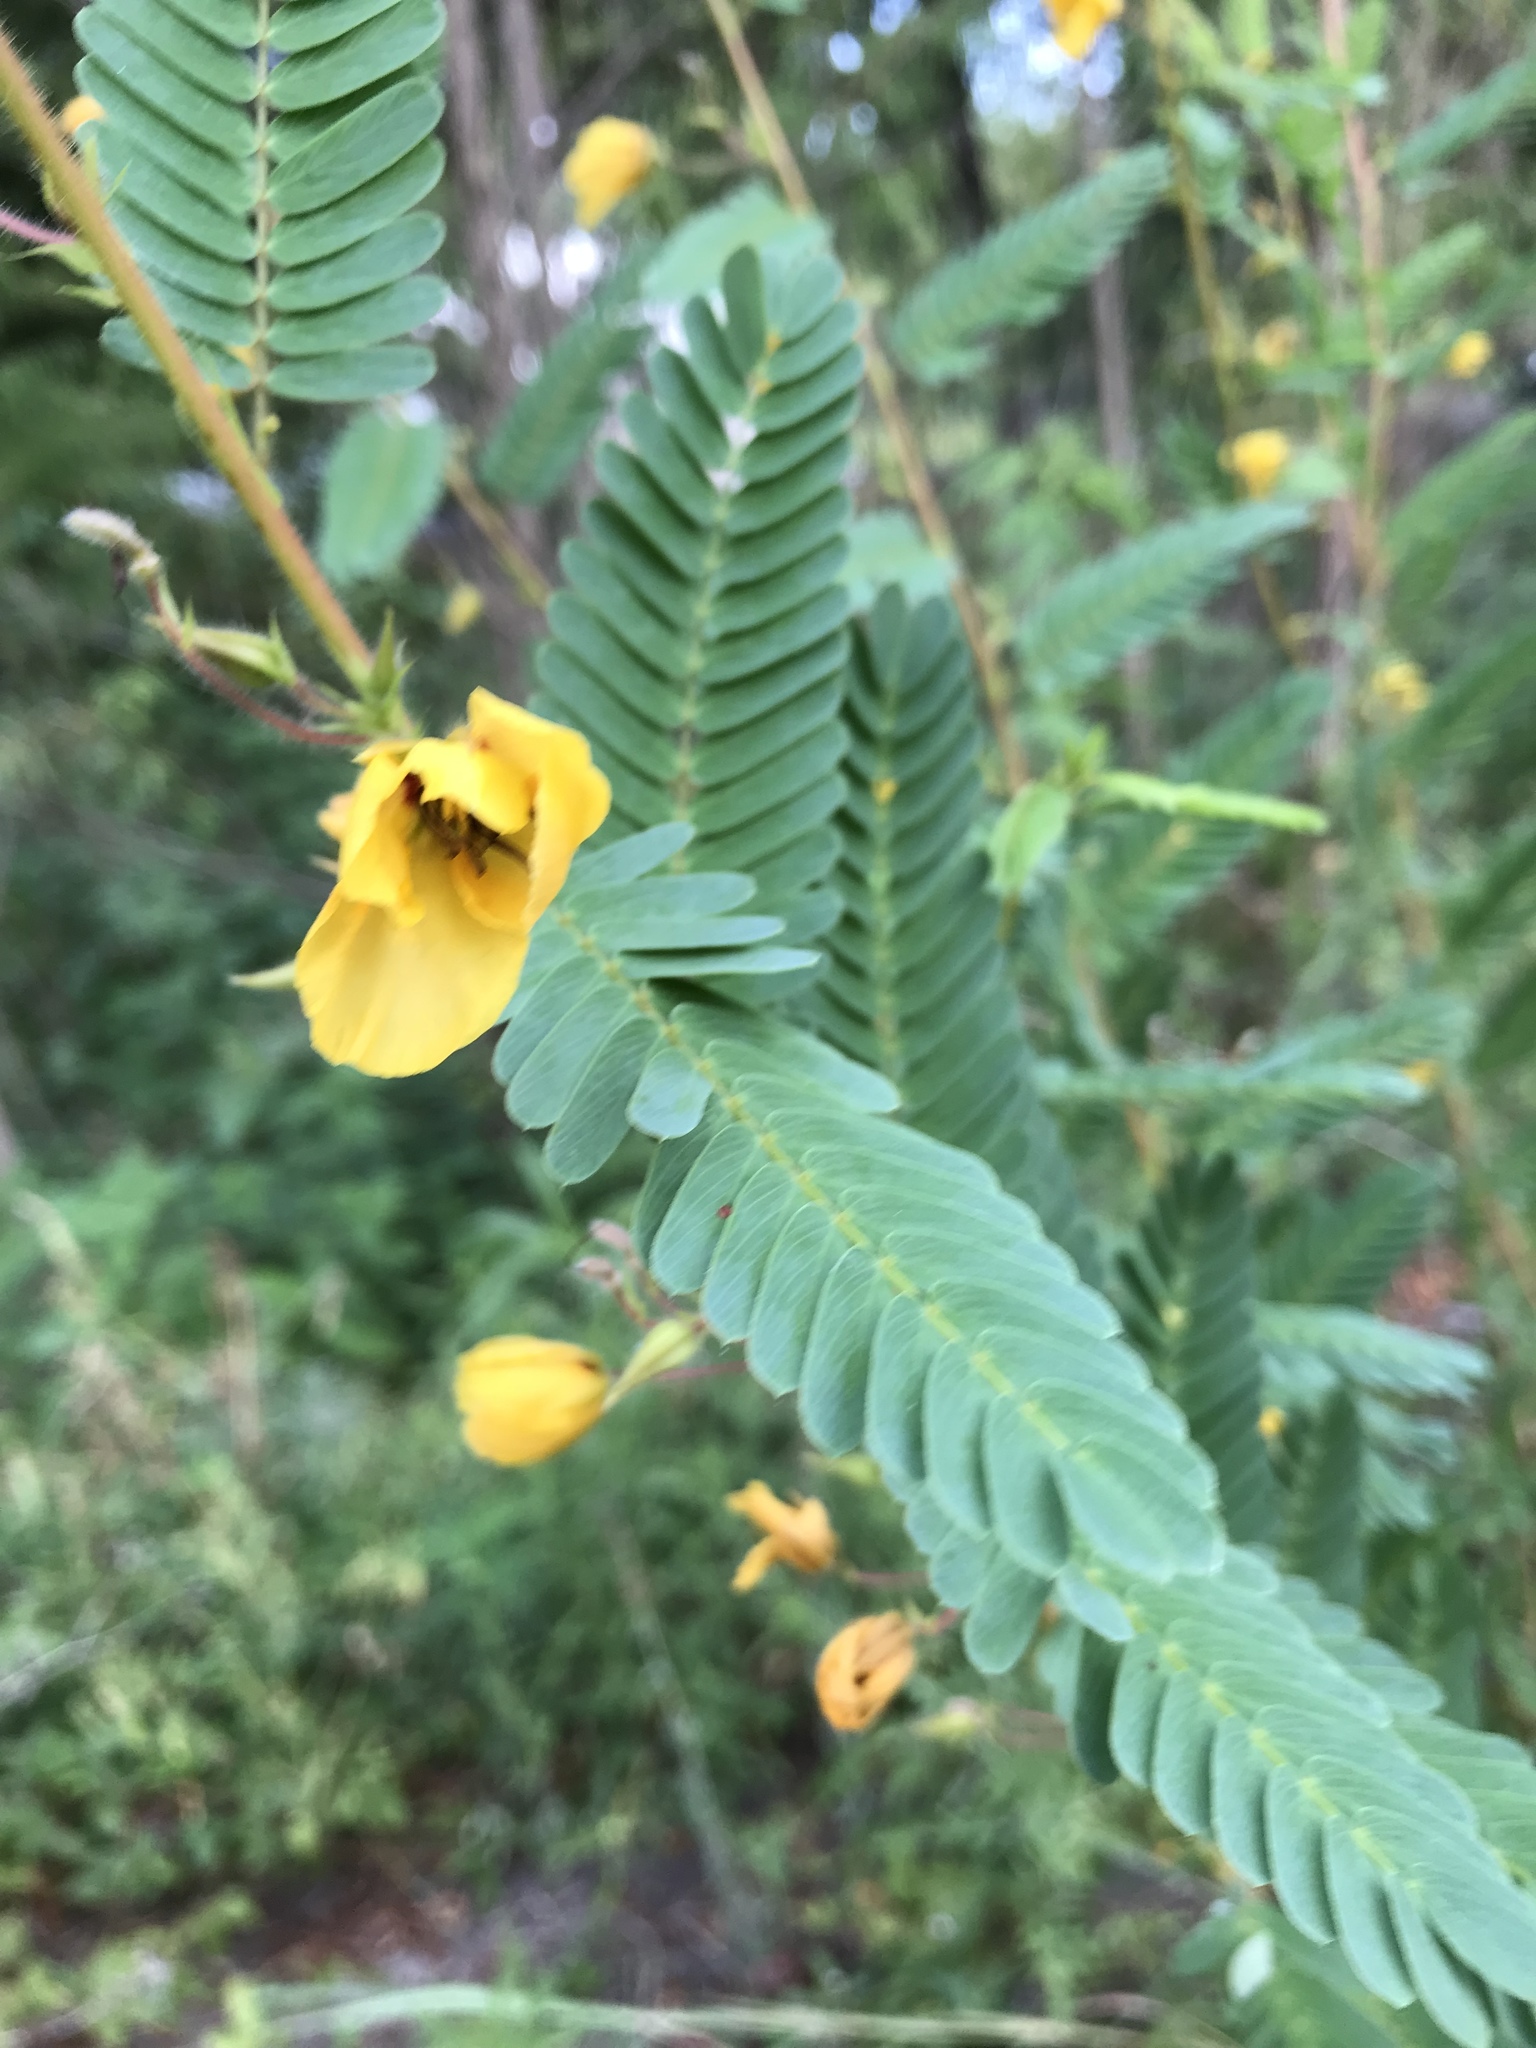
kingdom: Plantae
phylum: Tracheophyta
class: Magnoliopsida
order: Fabales
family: Fabaceae
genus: Chamaecrista
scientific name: Chamaecrista fasciculata
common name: Golden cassia
